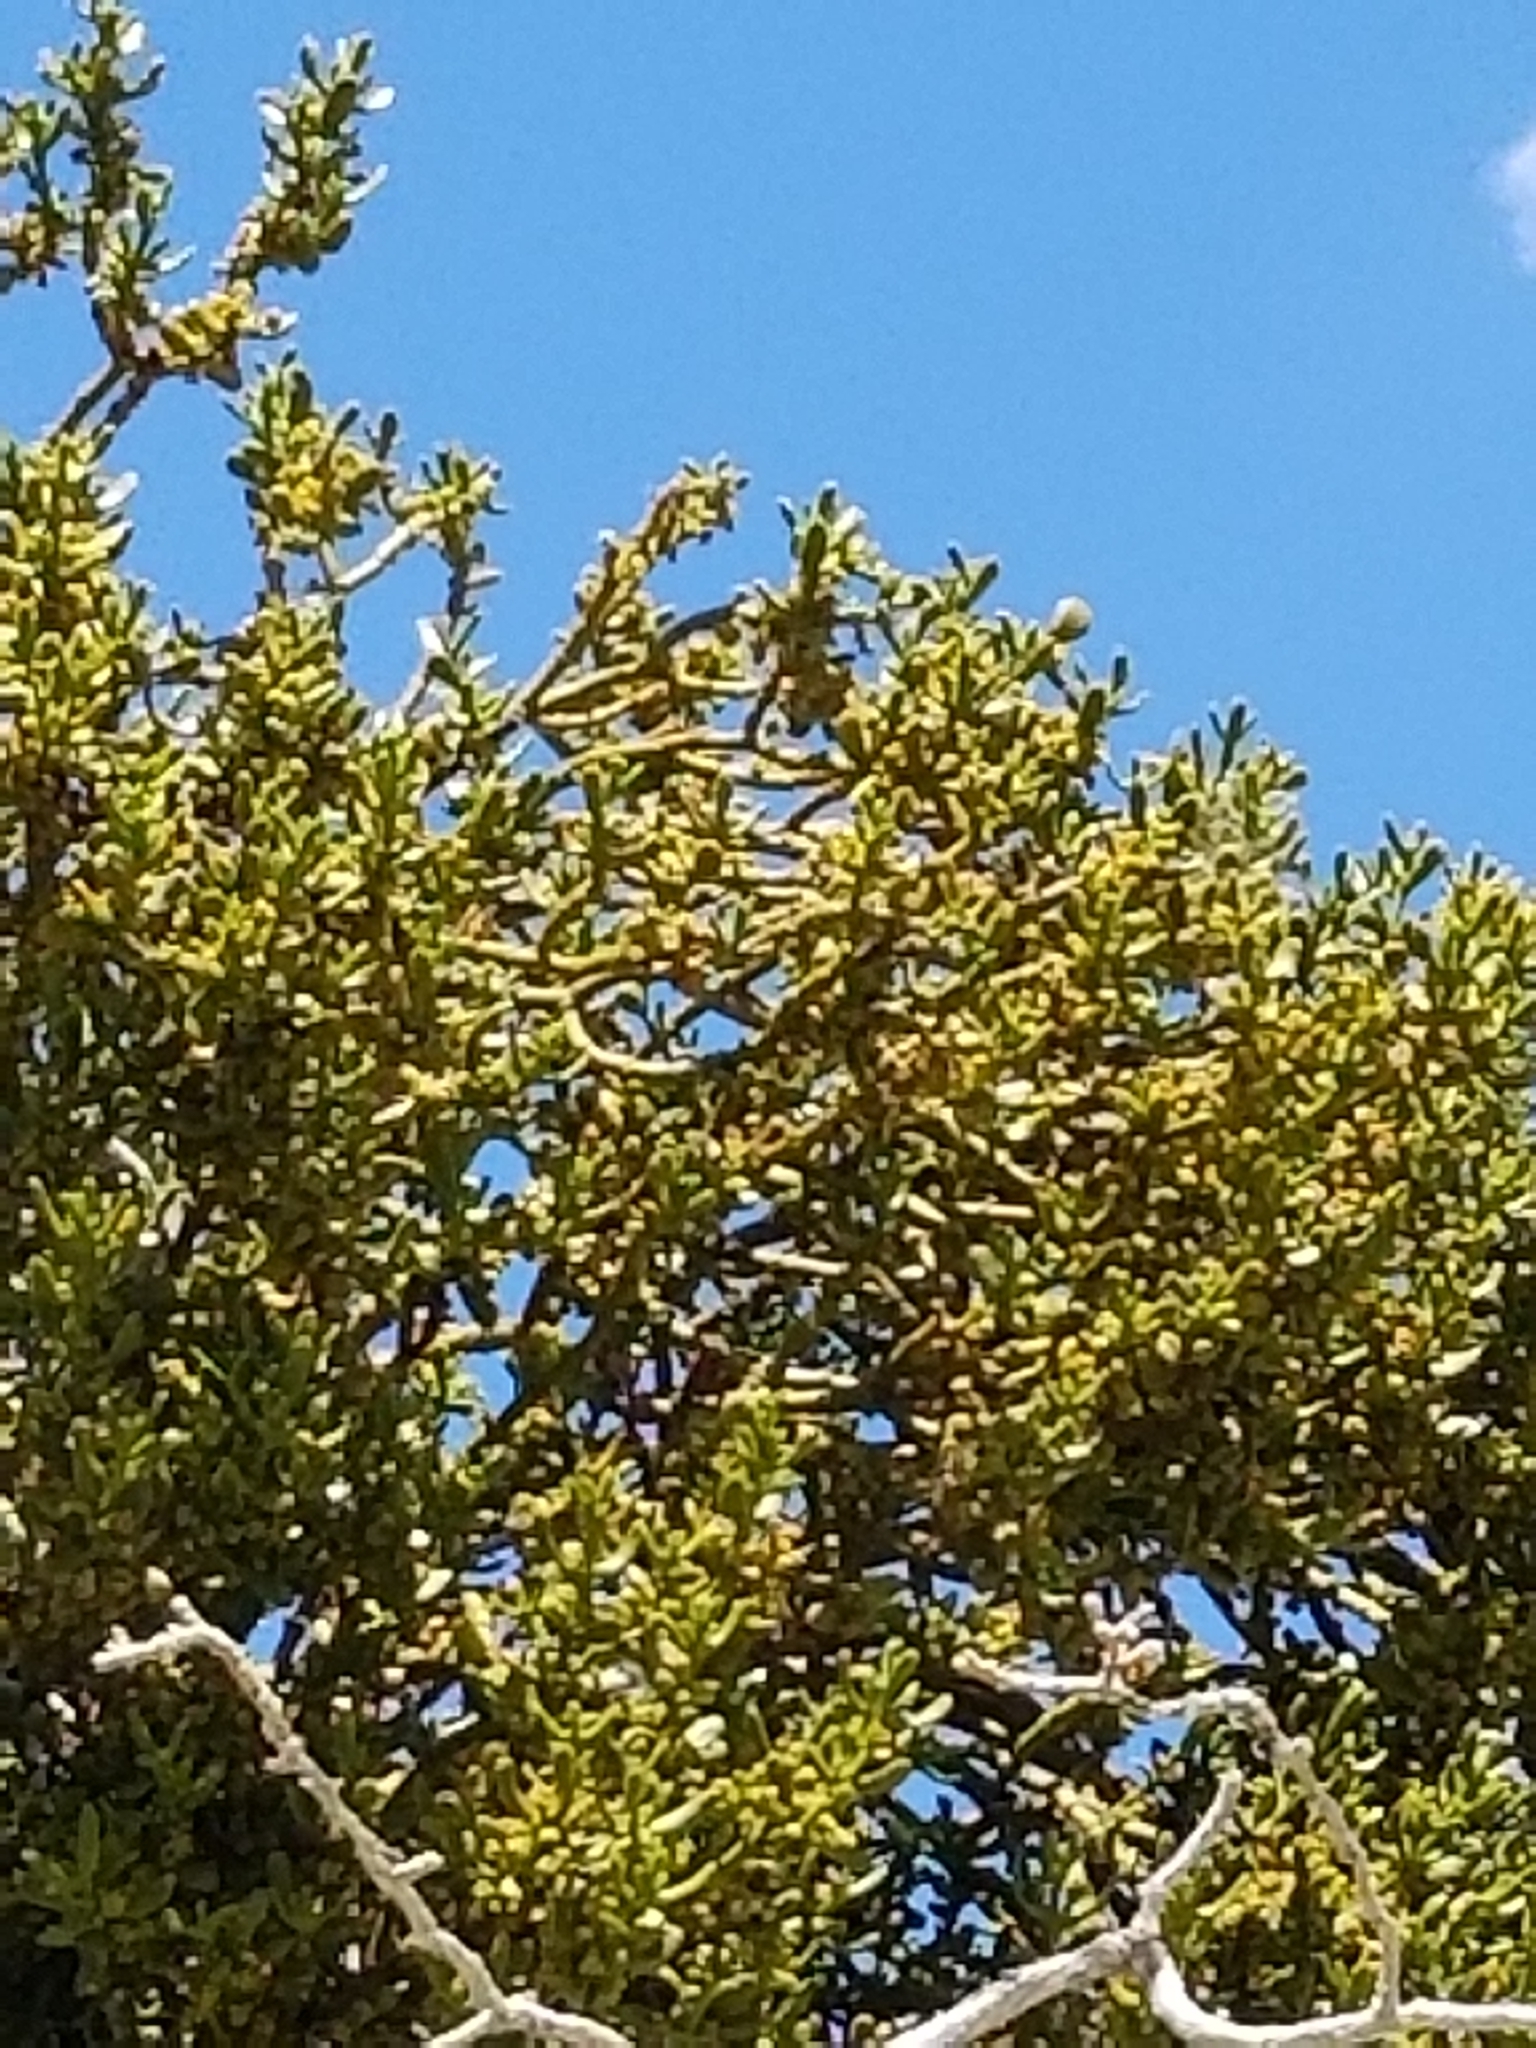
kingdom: Plantae
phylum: Tracheophyta
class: Magnoliopsida
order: Santalales
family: Viscaceae
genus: Phoradendron
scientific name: Phoradendron bolleanum
